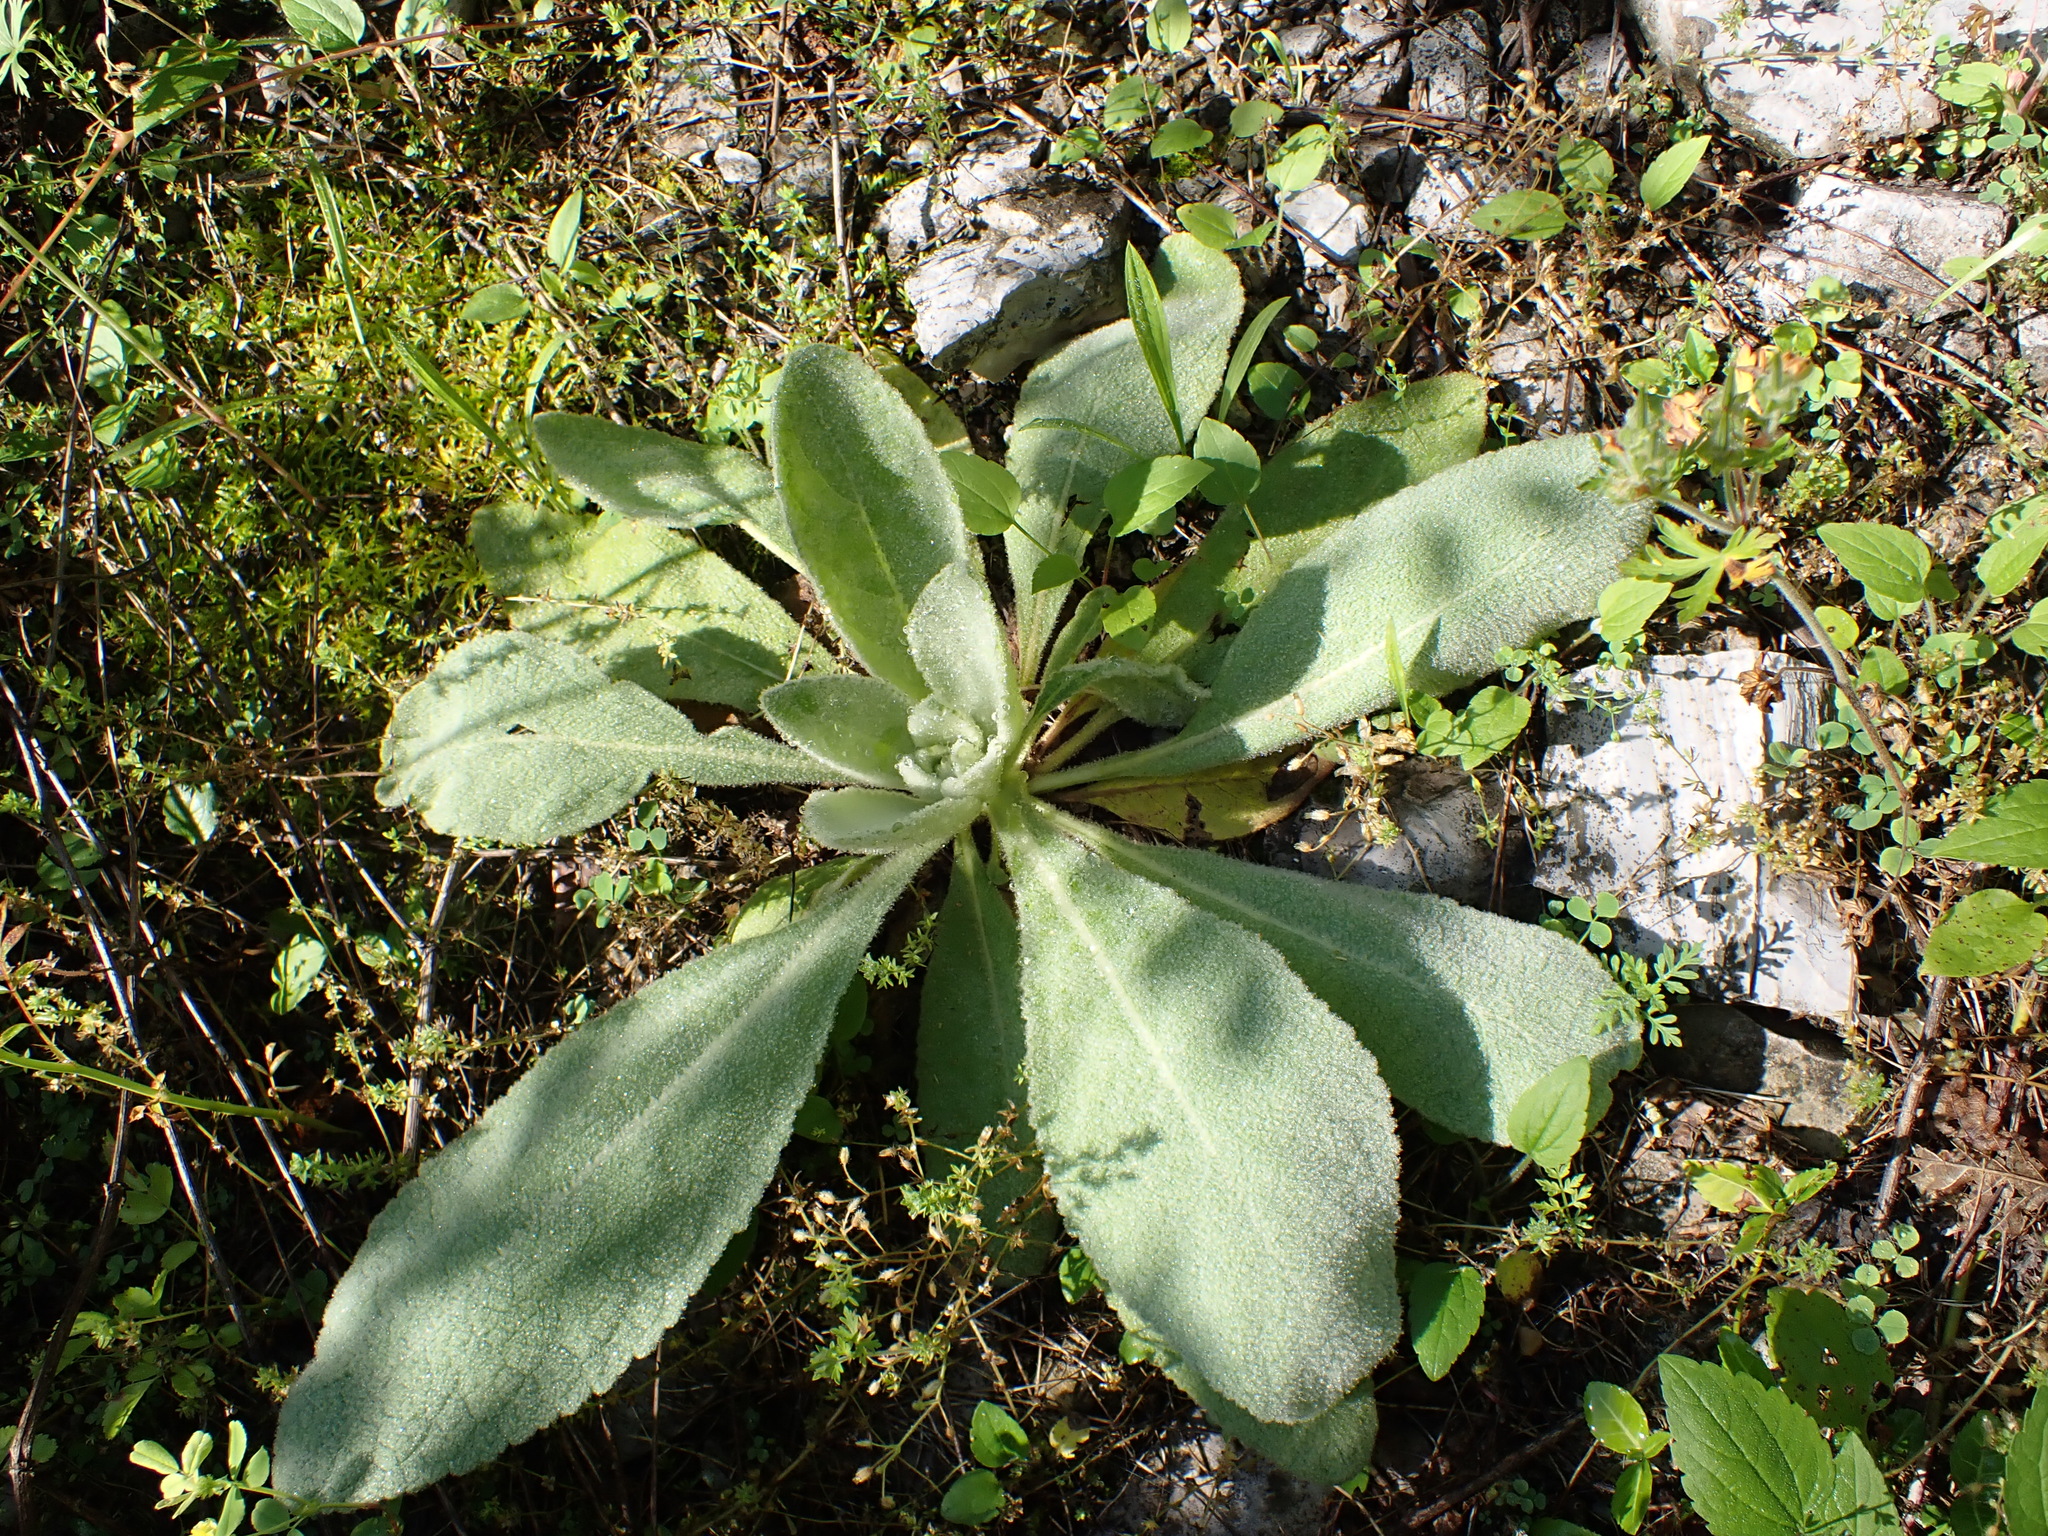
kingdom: Plantae
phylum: Tracheophyta
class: Magnoliopsida
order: Lamiales
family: Scrophulariaceae
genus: Verbascum
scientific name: Verbascum thapsus
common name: Common mullein
